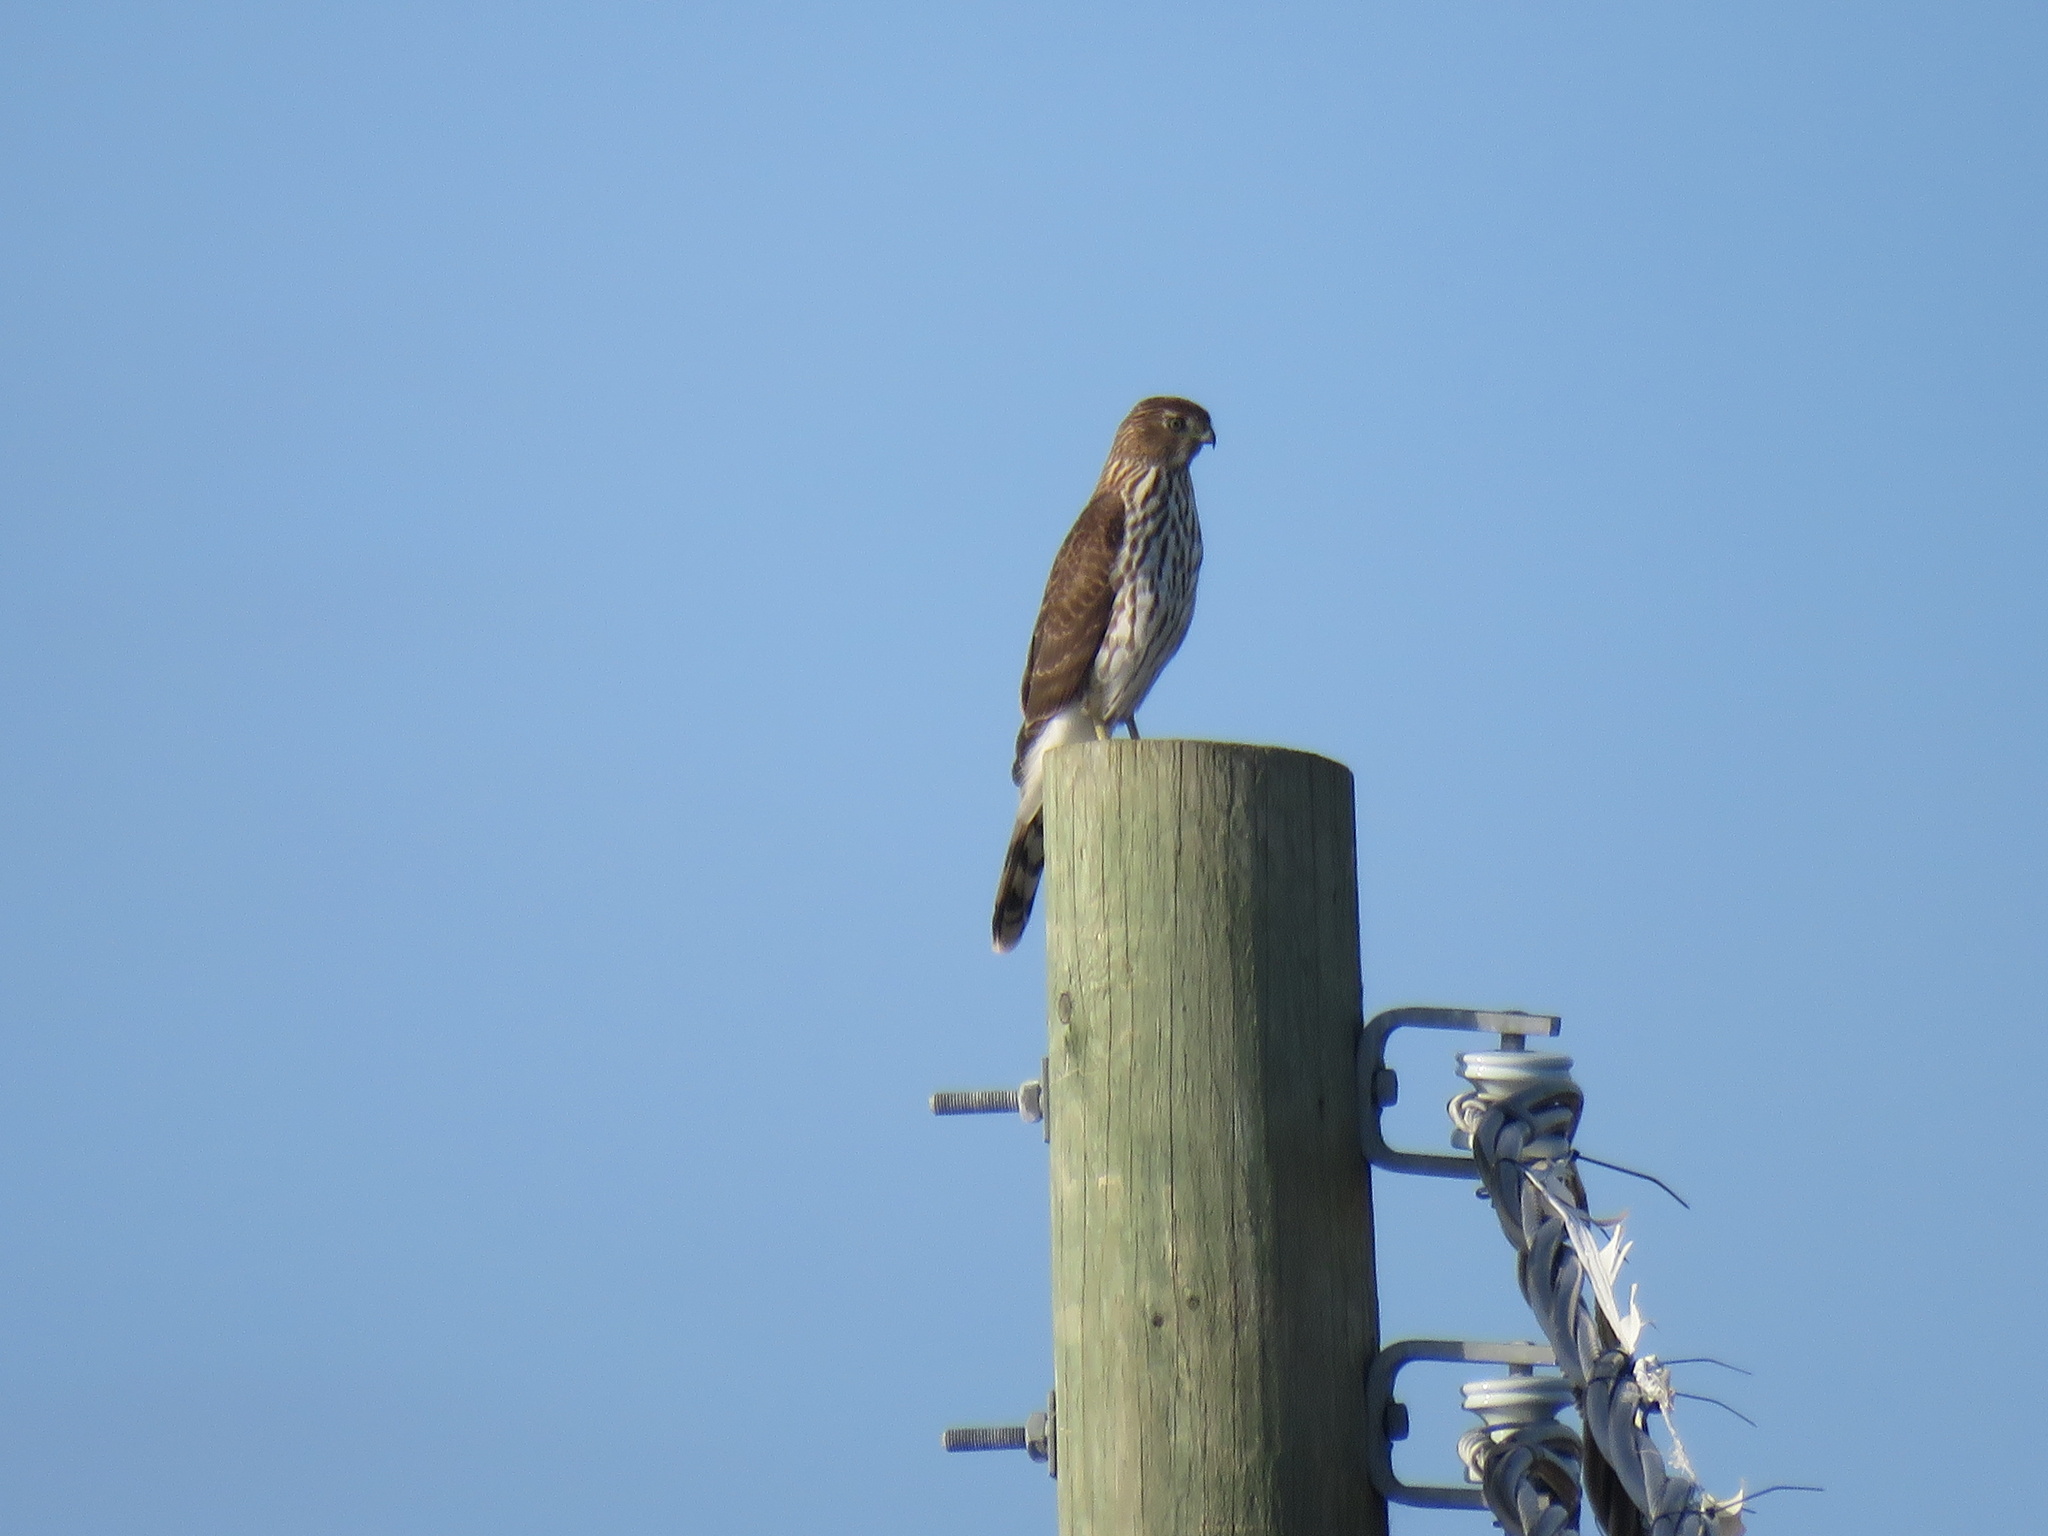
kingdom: Animalia
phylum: Chordata
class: Aves
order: Accipitriformes
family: Accipitridae
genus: Accipiter
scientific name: Accipiter cooperii
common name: Cooper's hawk
